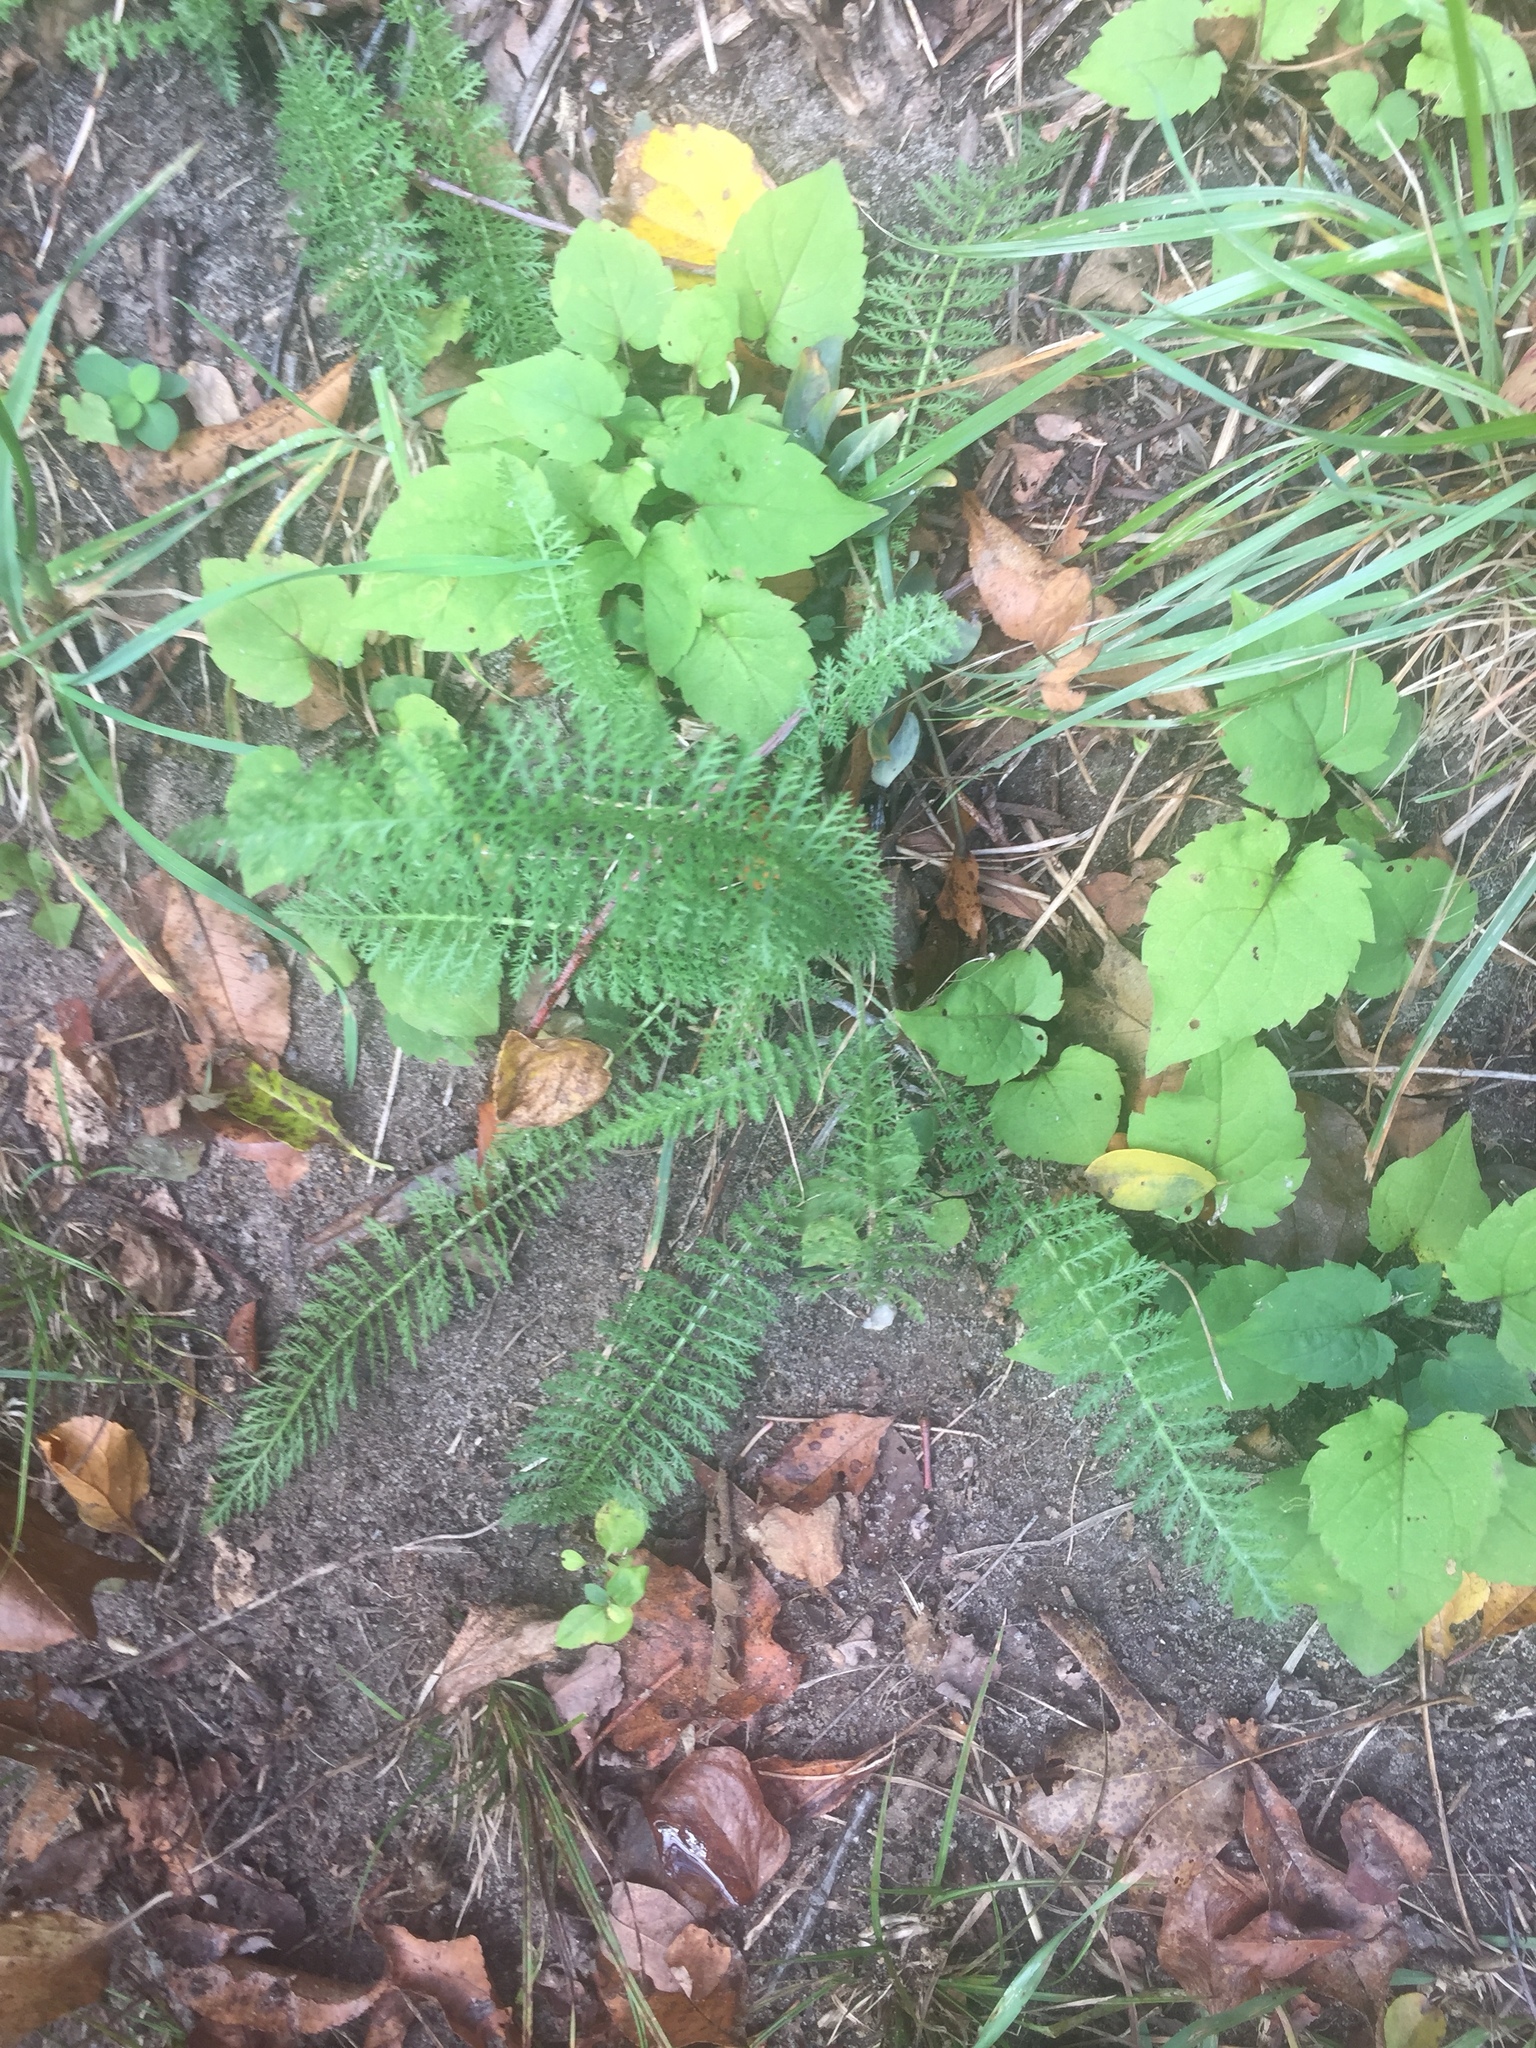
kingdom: Plantae
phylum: Tracheophyta
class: Magnoliopsida
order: Asterales
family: Asteraceae
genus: Achillea
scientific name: Achillea millefolium
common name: Yarrow
